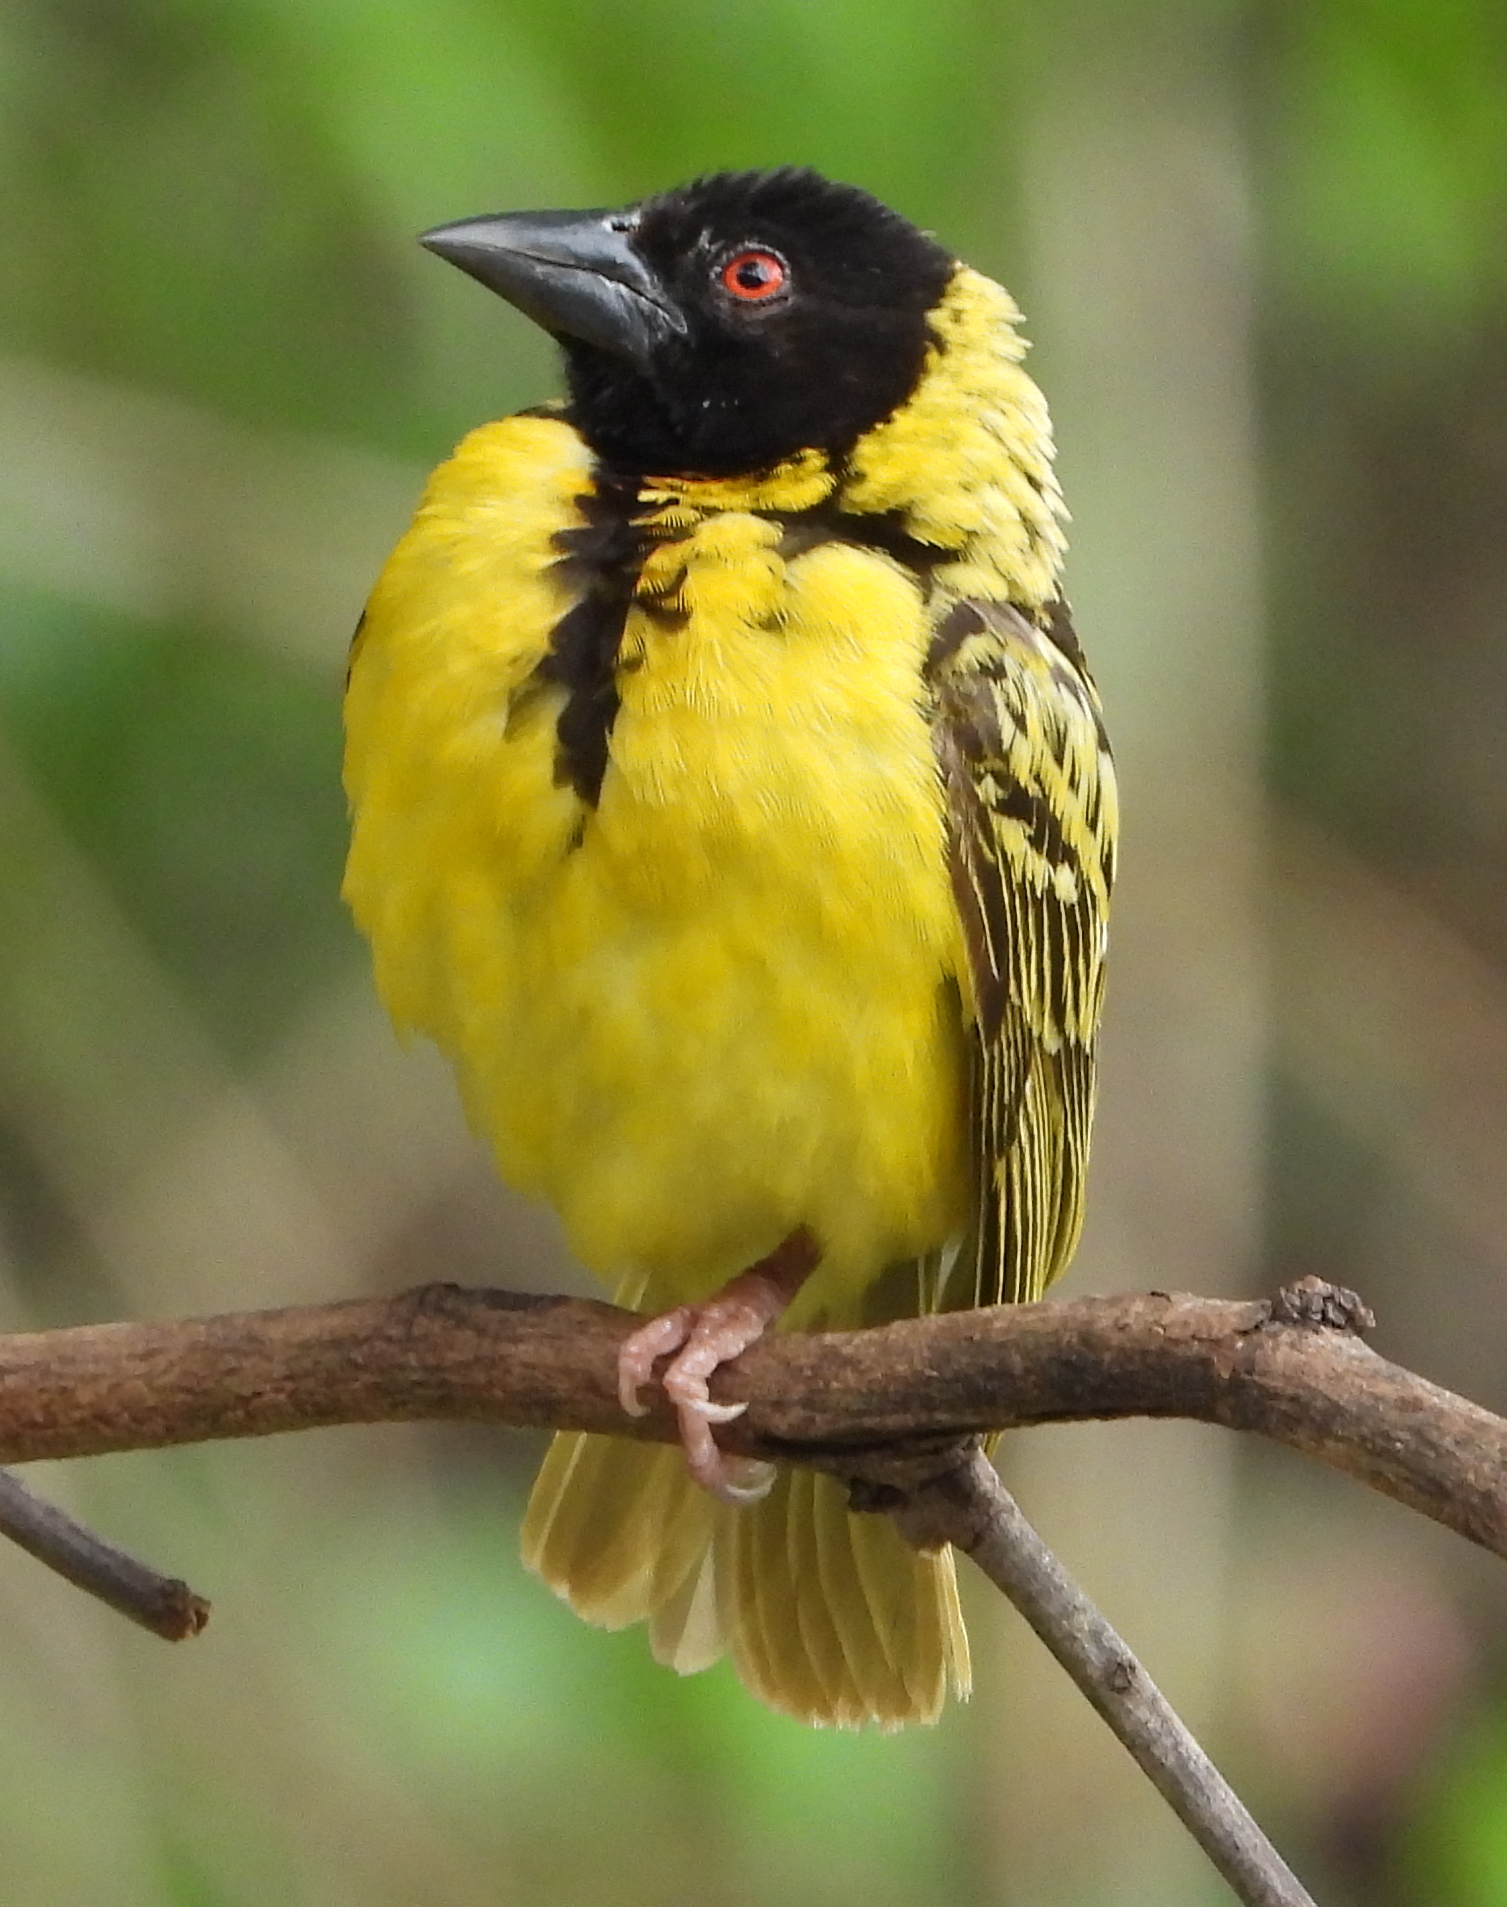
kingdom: Animalia
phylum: Chordata
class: Aves
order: Passeriformes
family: Ploceidae
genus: Ploceus
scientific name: Ploceus cucullatus
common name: Village weaver
